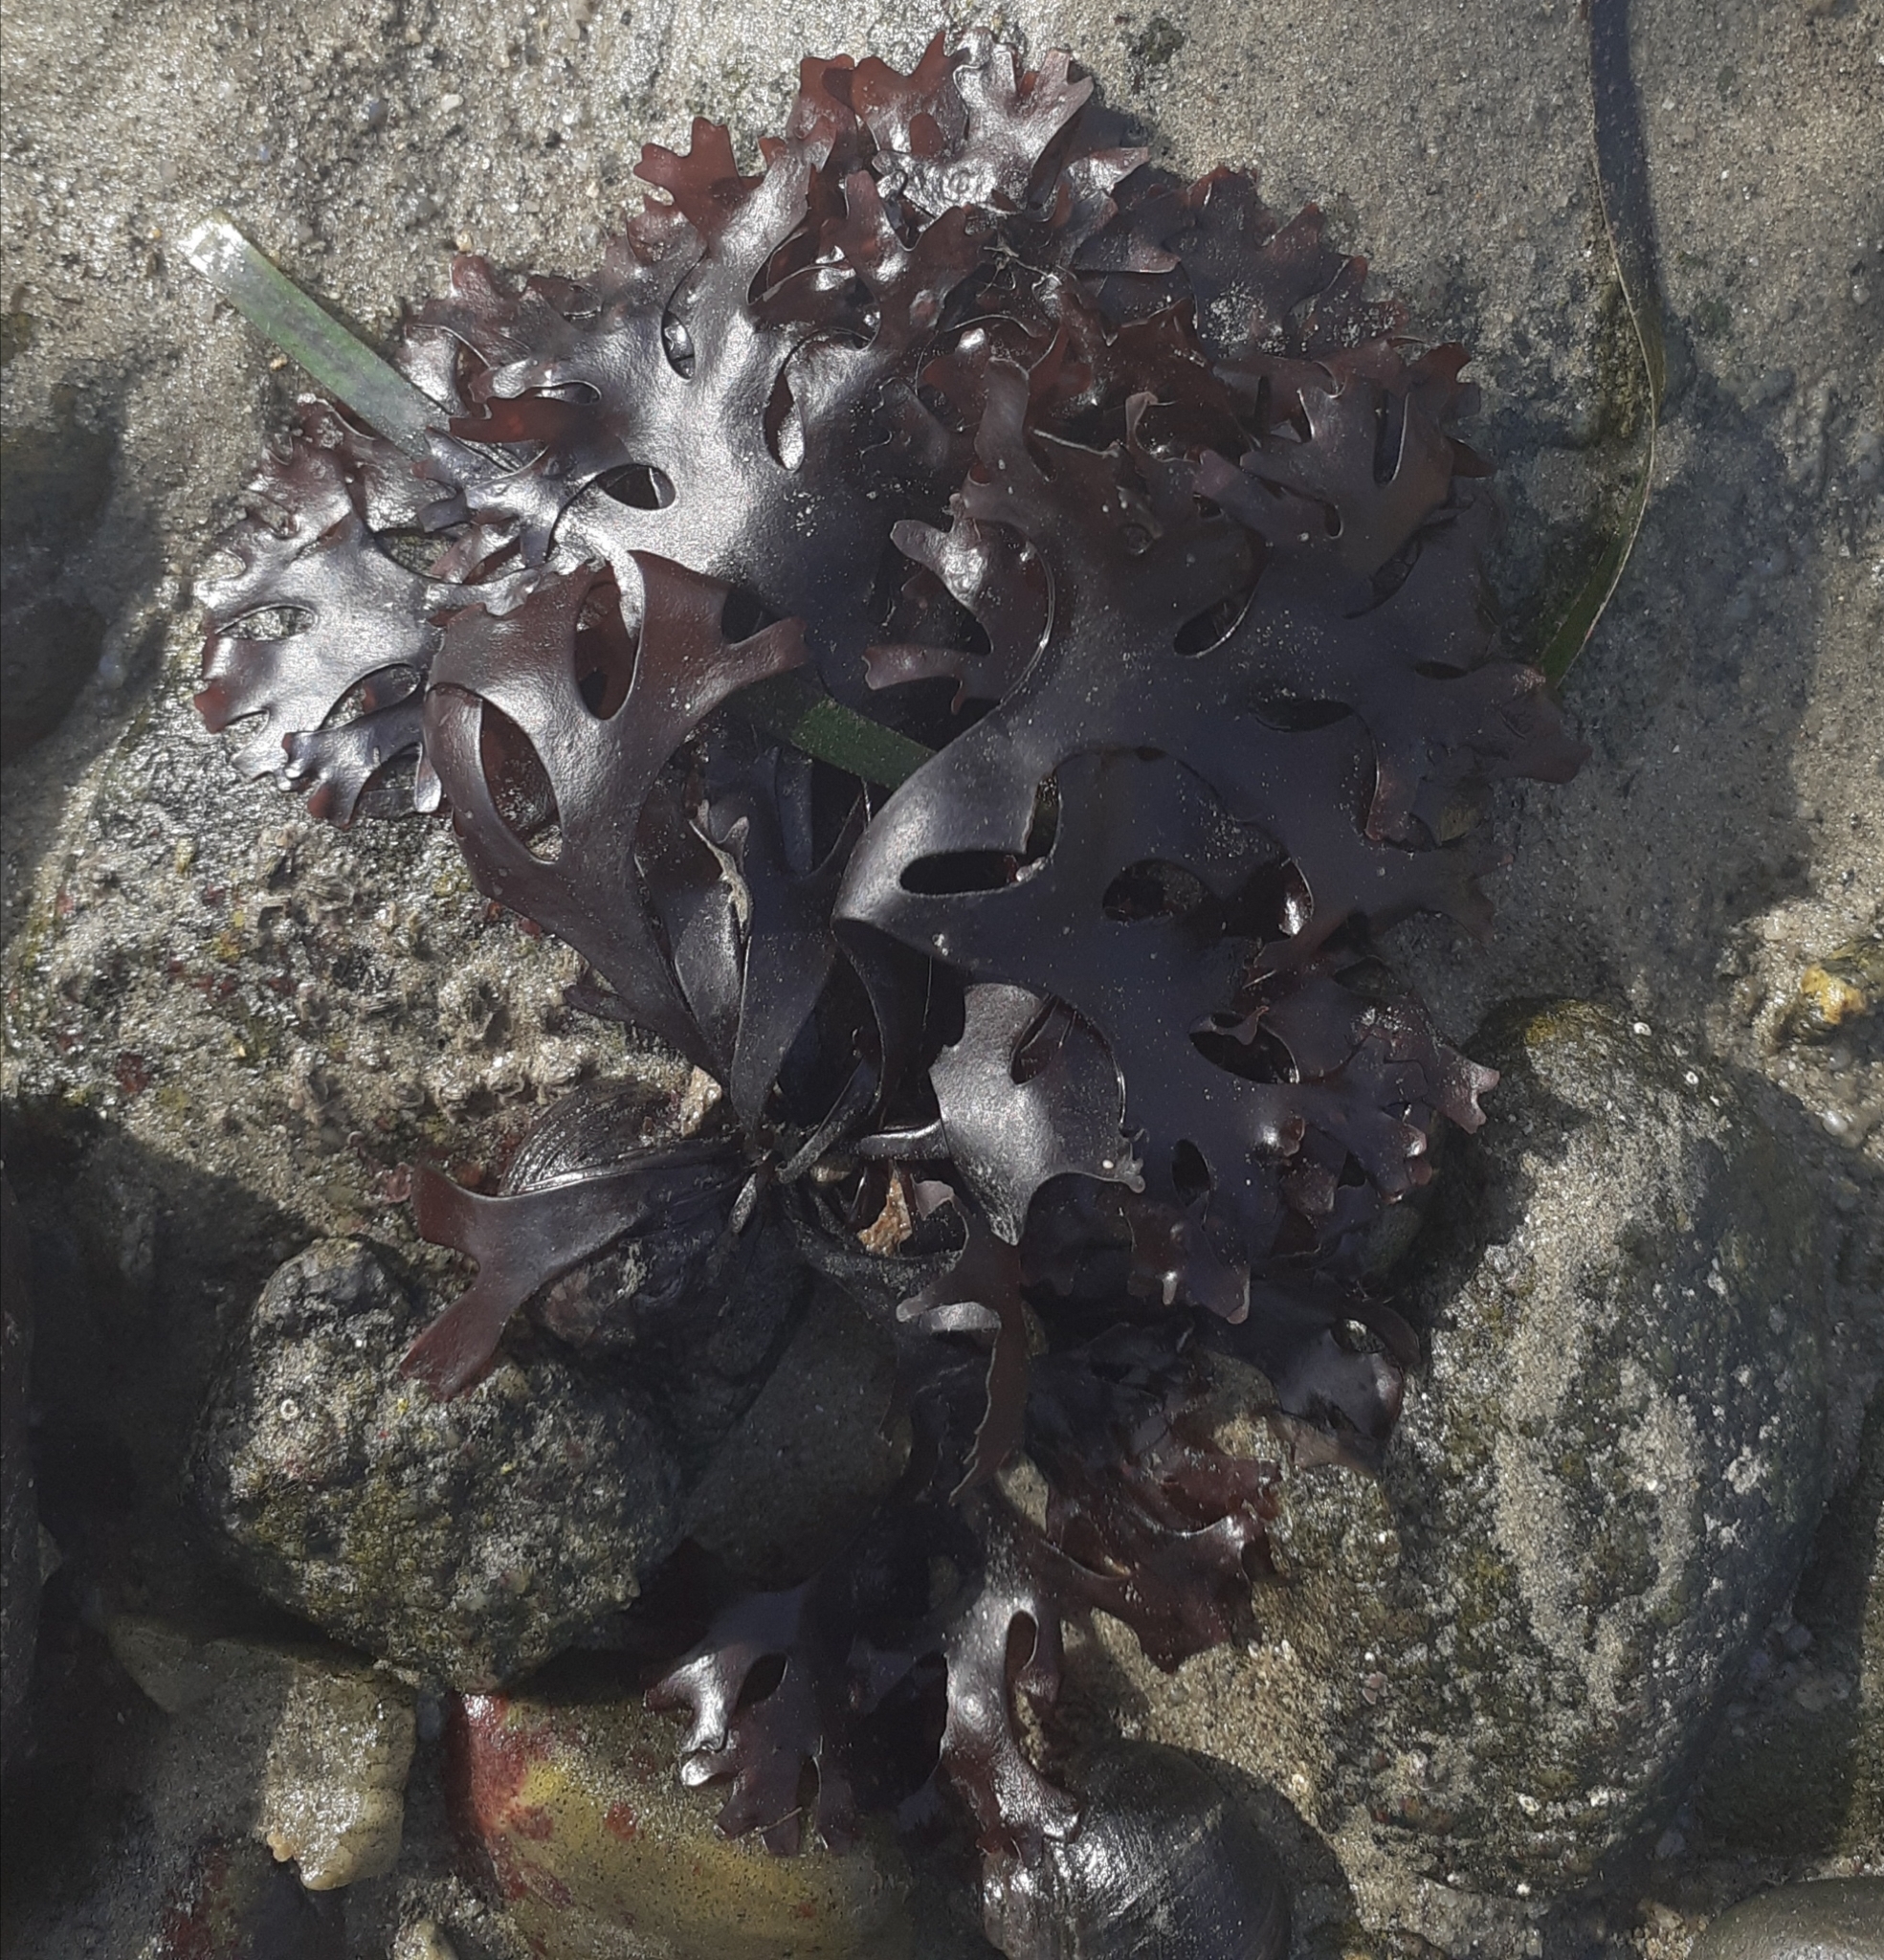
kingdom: Plantae
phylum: Rhodophyta
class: Florideophyceae
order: Gigartinales
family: Gigartinaceae
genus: Chondrus
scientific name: Chondrus crispus
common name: Carrageen
